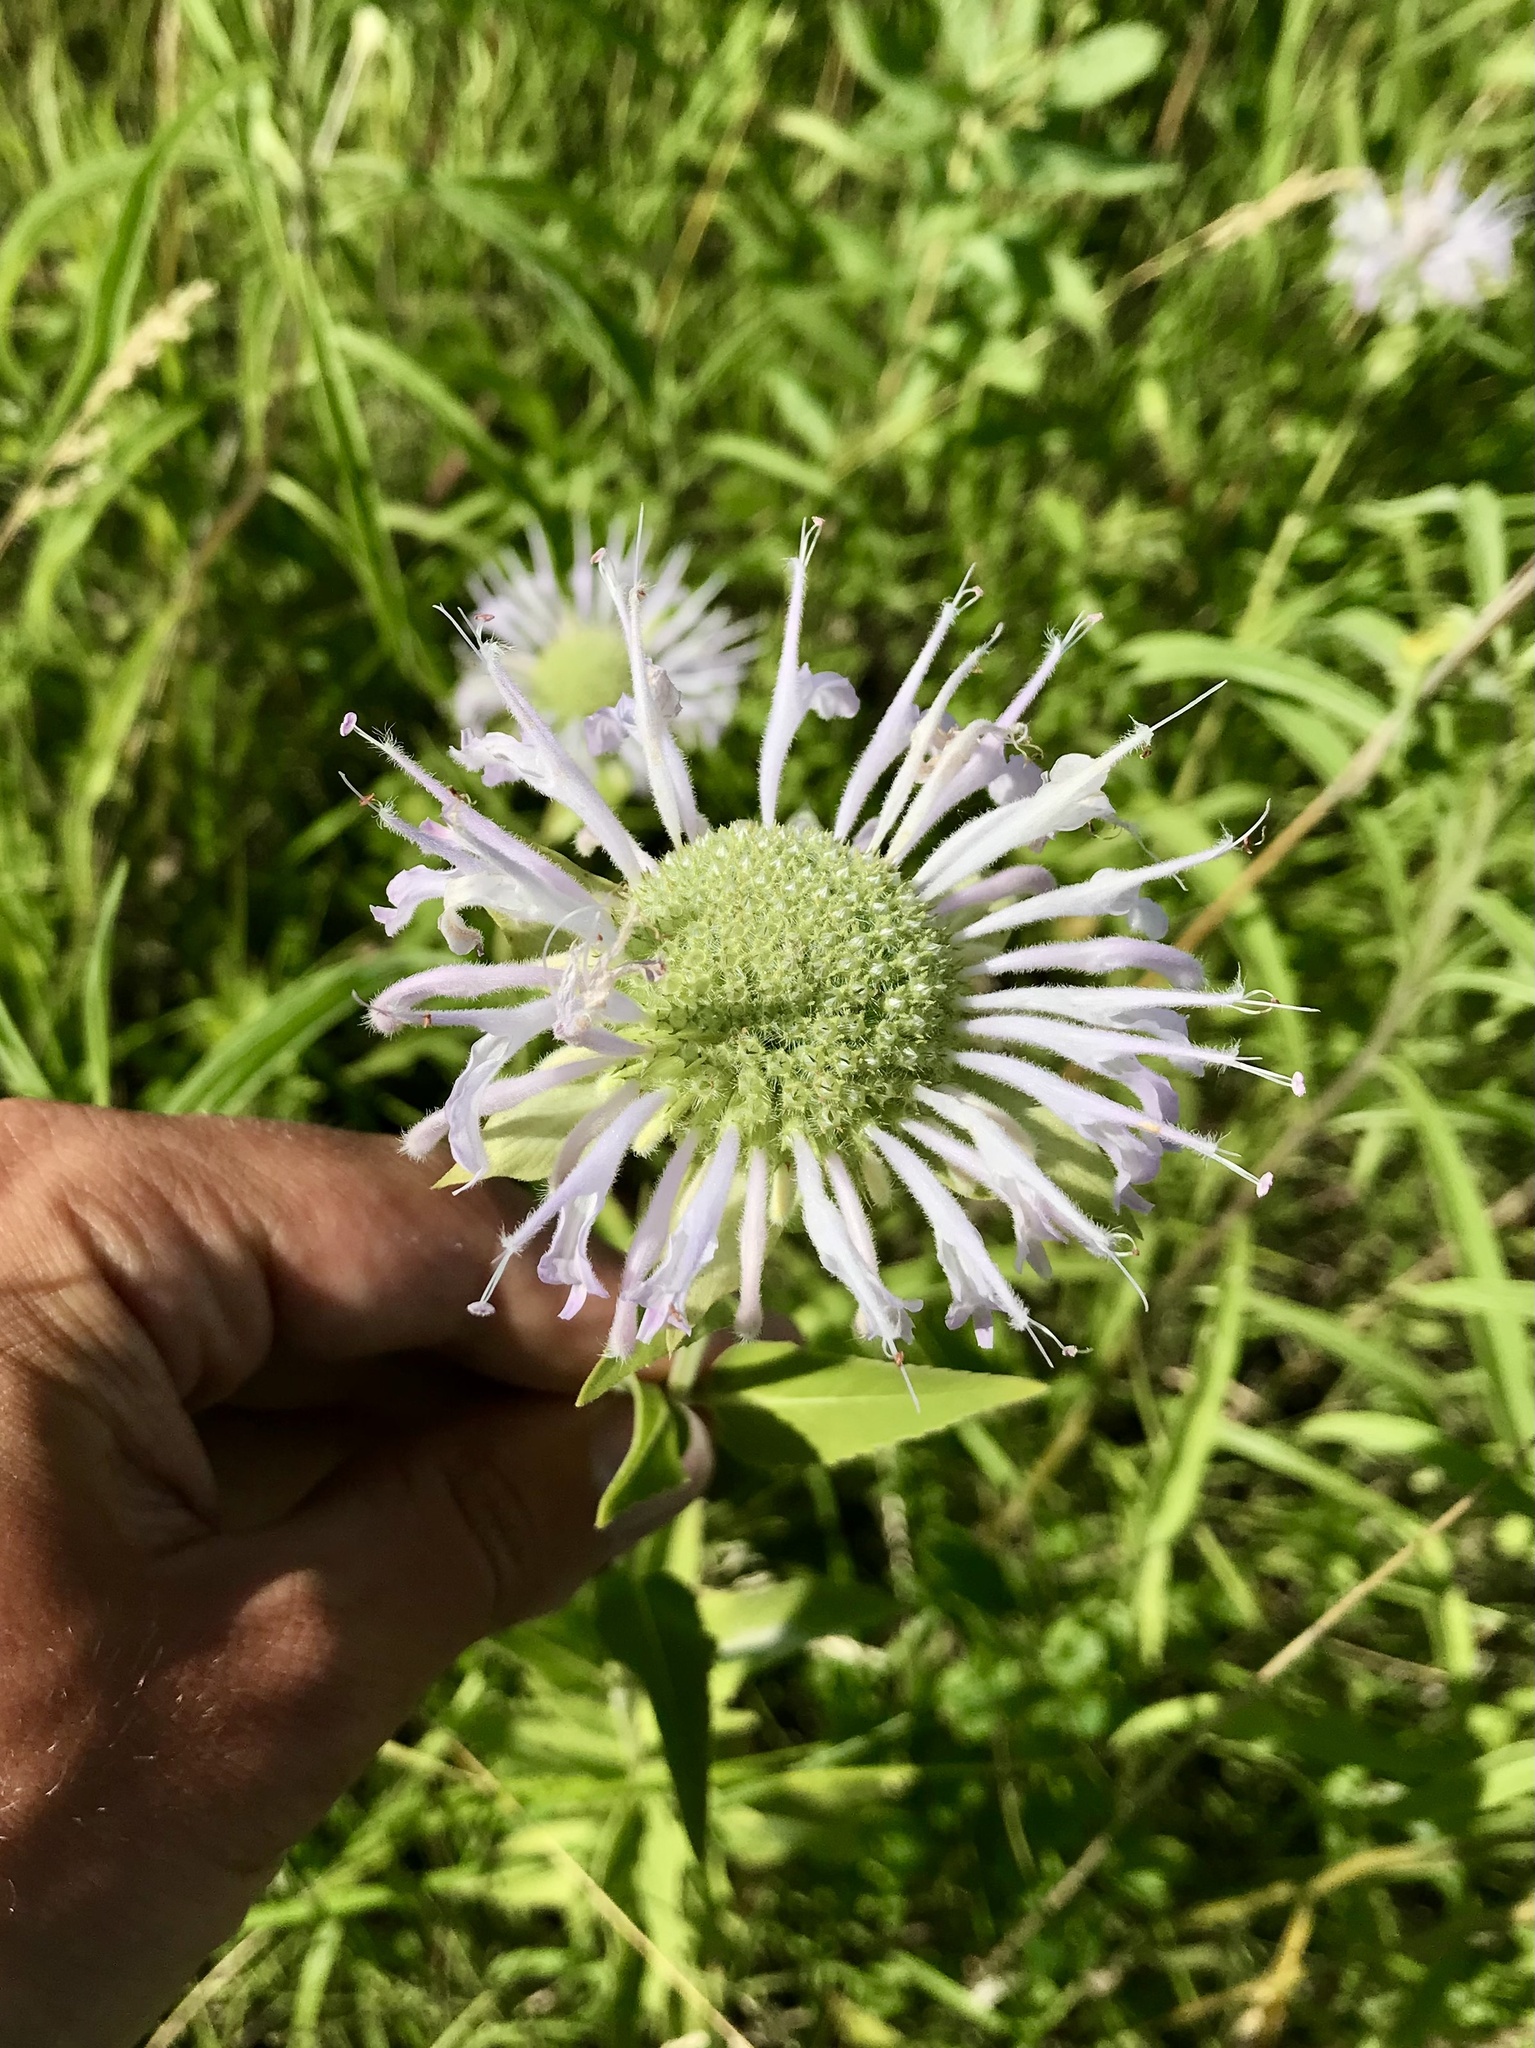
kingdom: Plantae
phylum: Tracheophyta
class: Magnoliopsida
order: Lamiales
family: Lamiaceae
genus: Monarda
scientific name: Monarda fistulosa
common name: Purple beebalm
